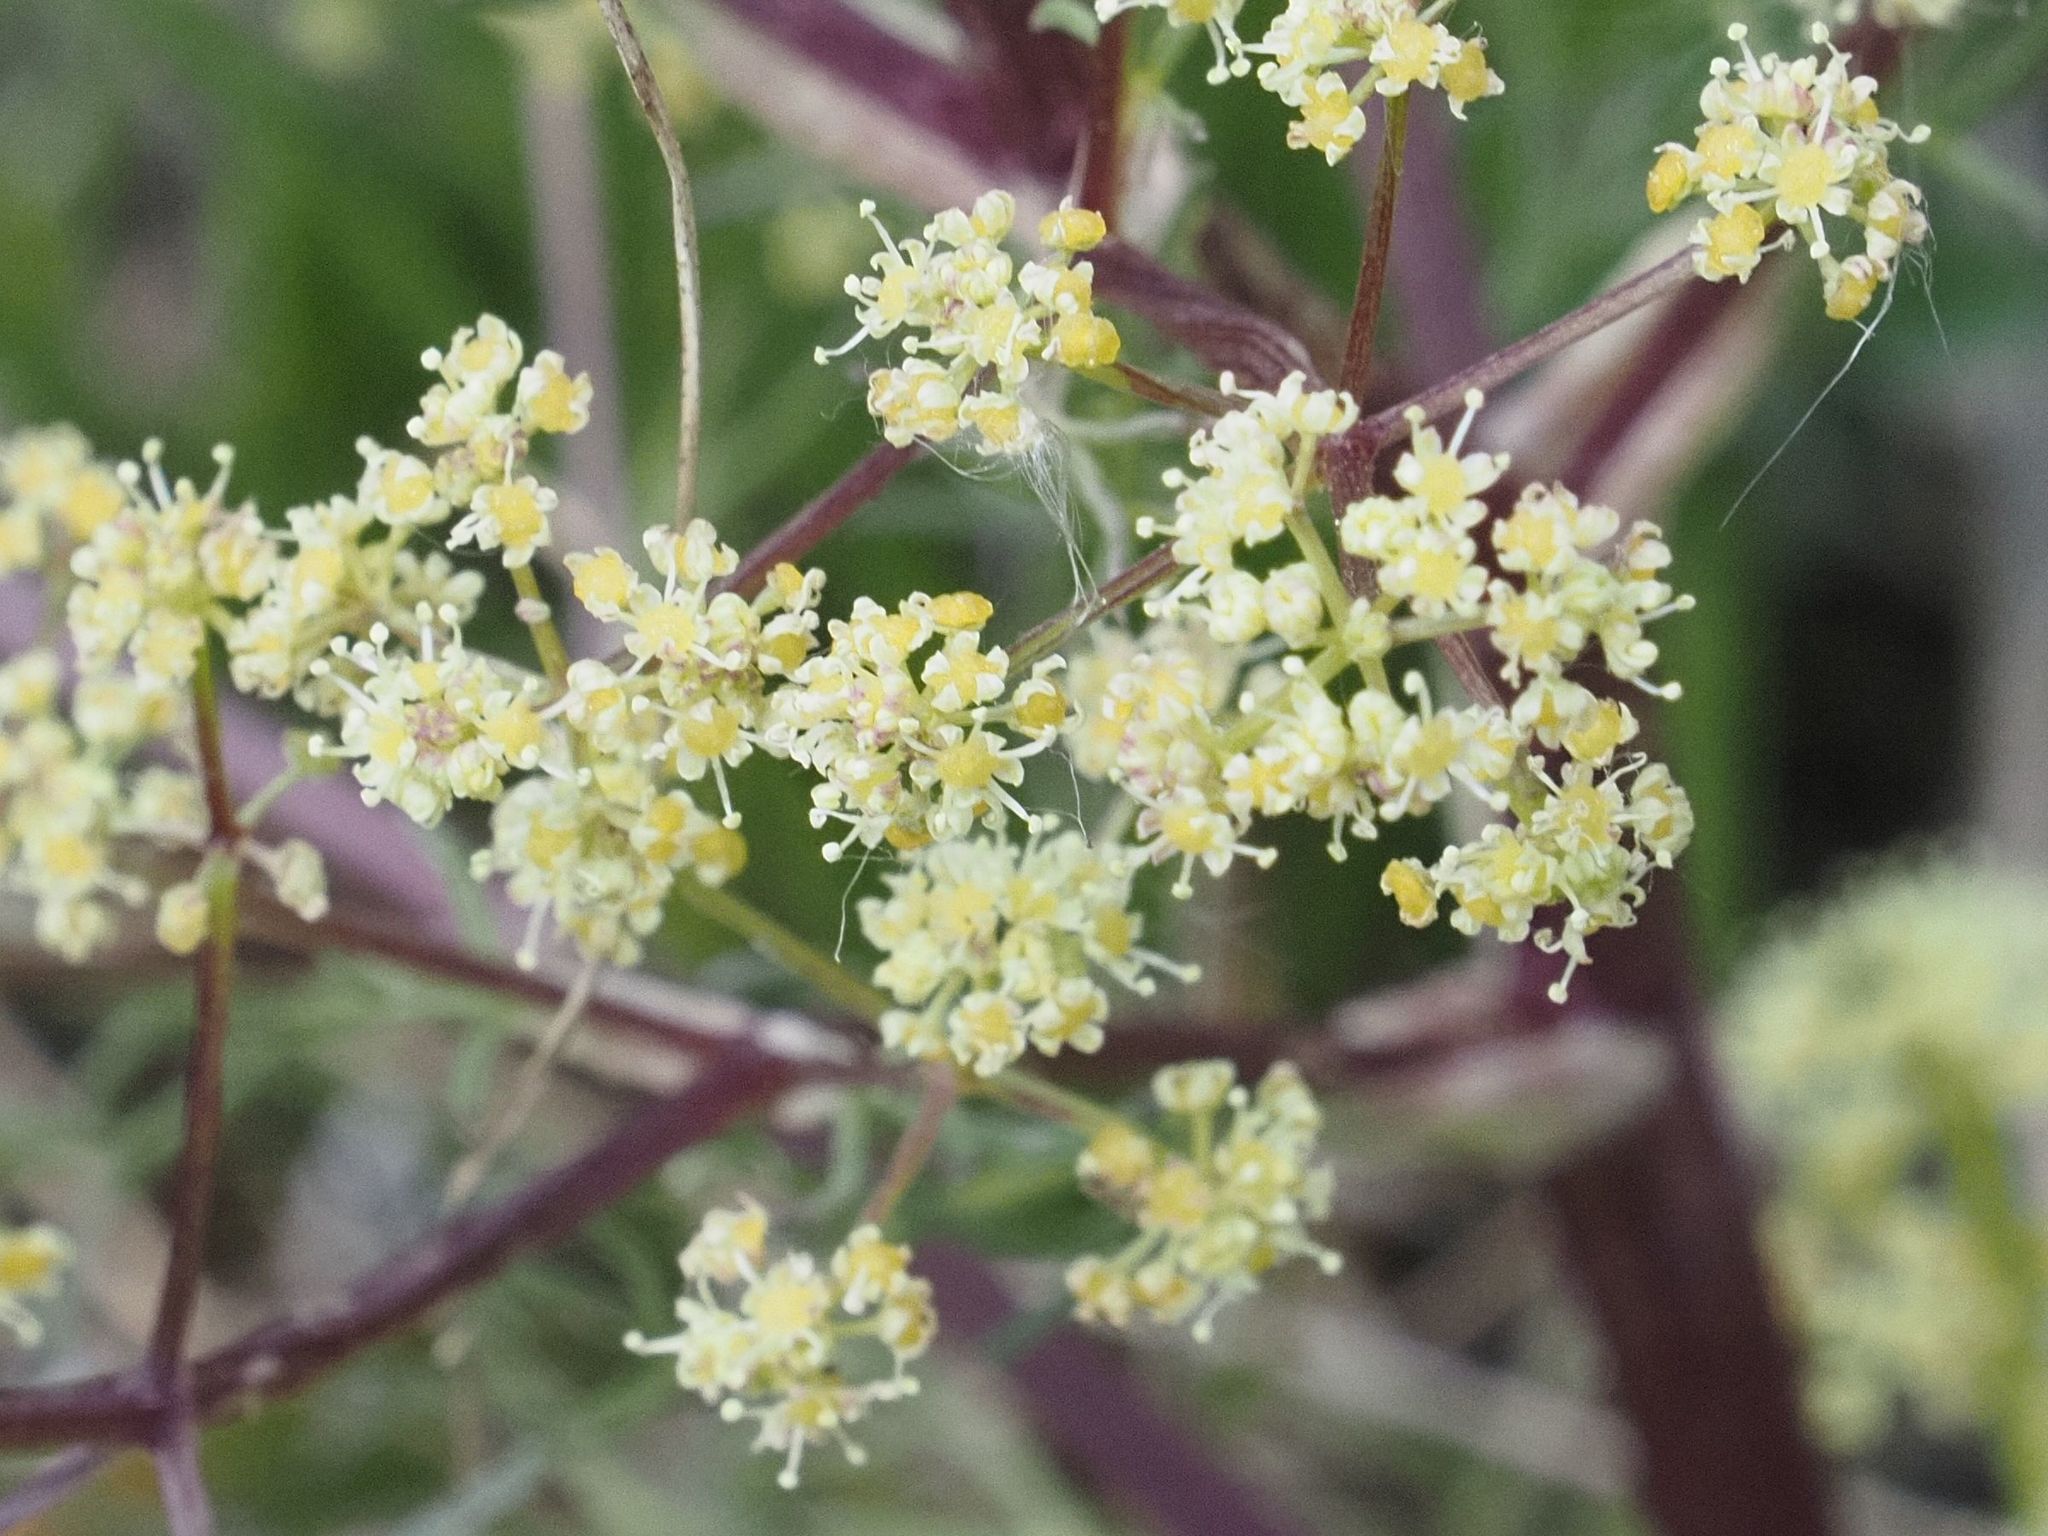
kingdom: Plantae
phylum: Tracheophyta
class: Magnoliopsida
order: Apiales
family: Apiaceae
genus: Trinia
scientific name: Trinia glauca
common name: Honewort
